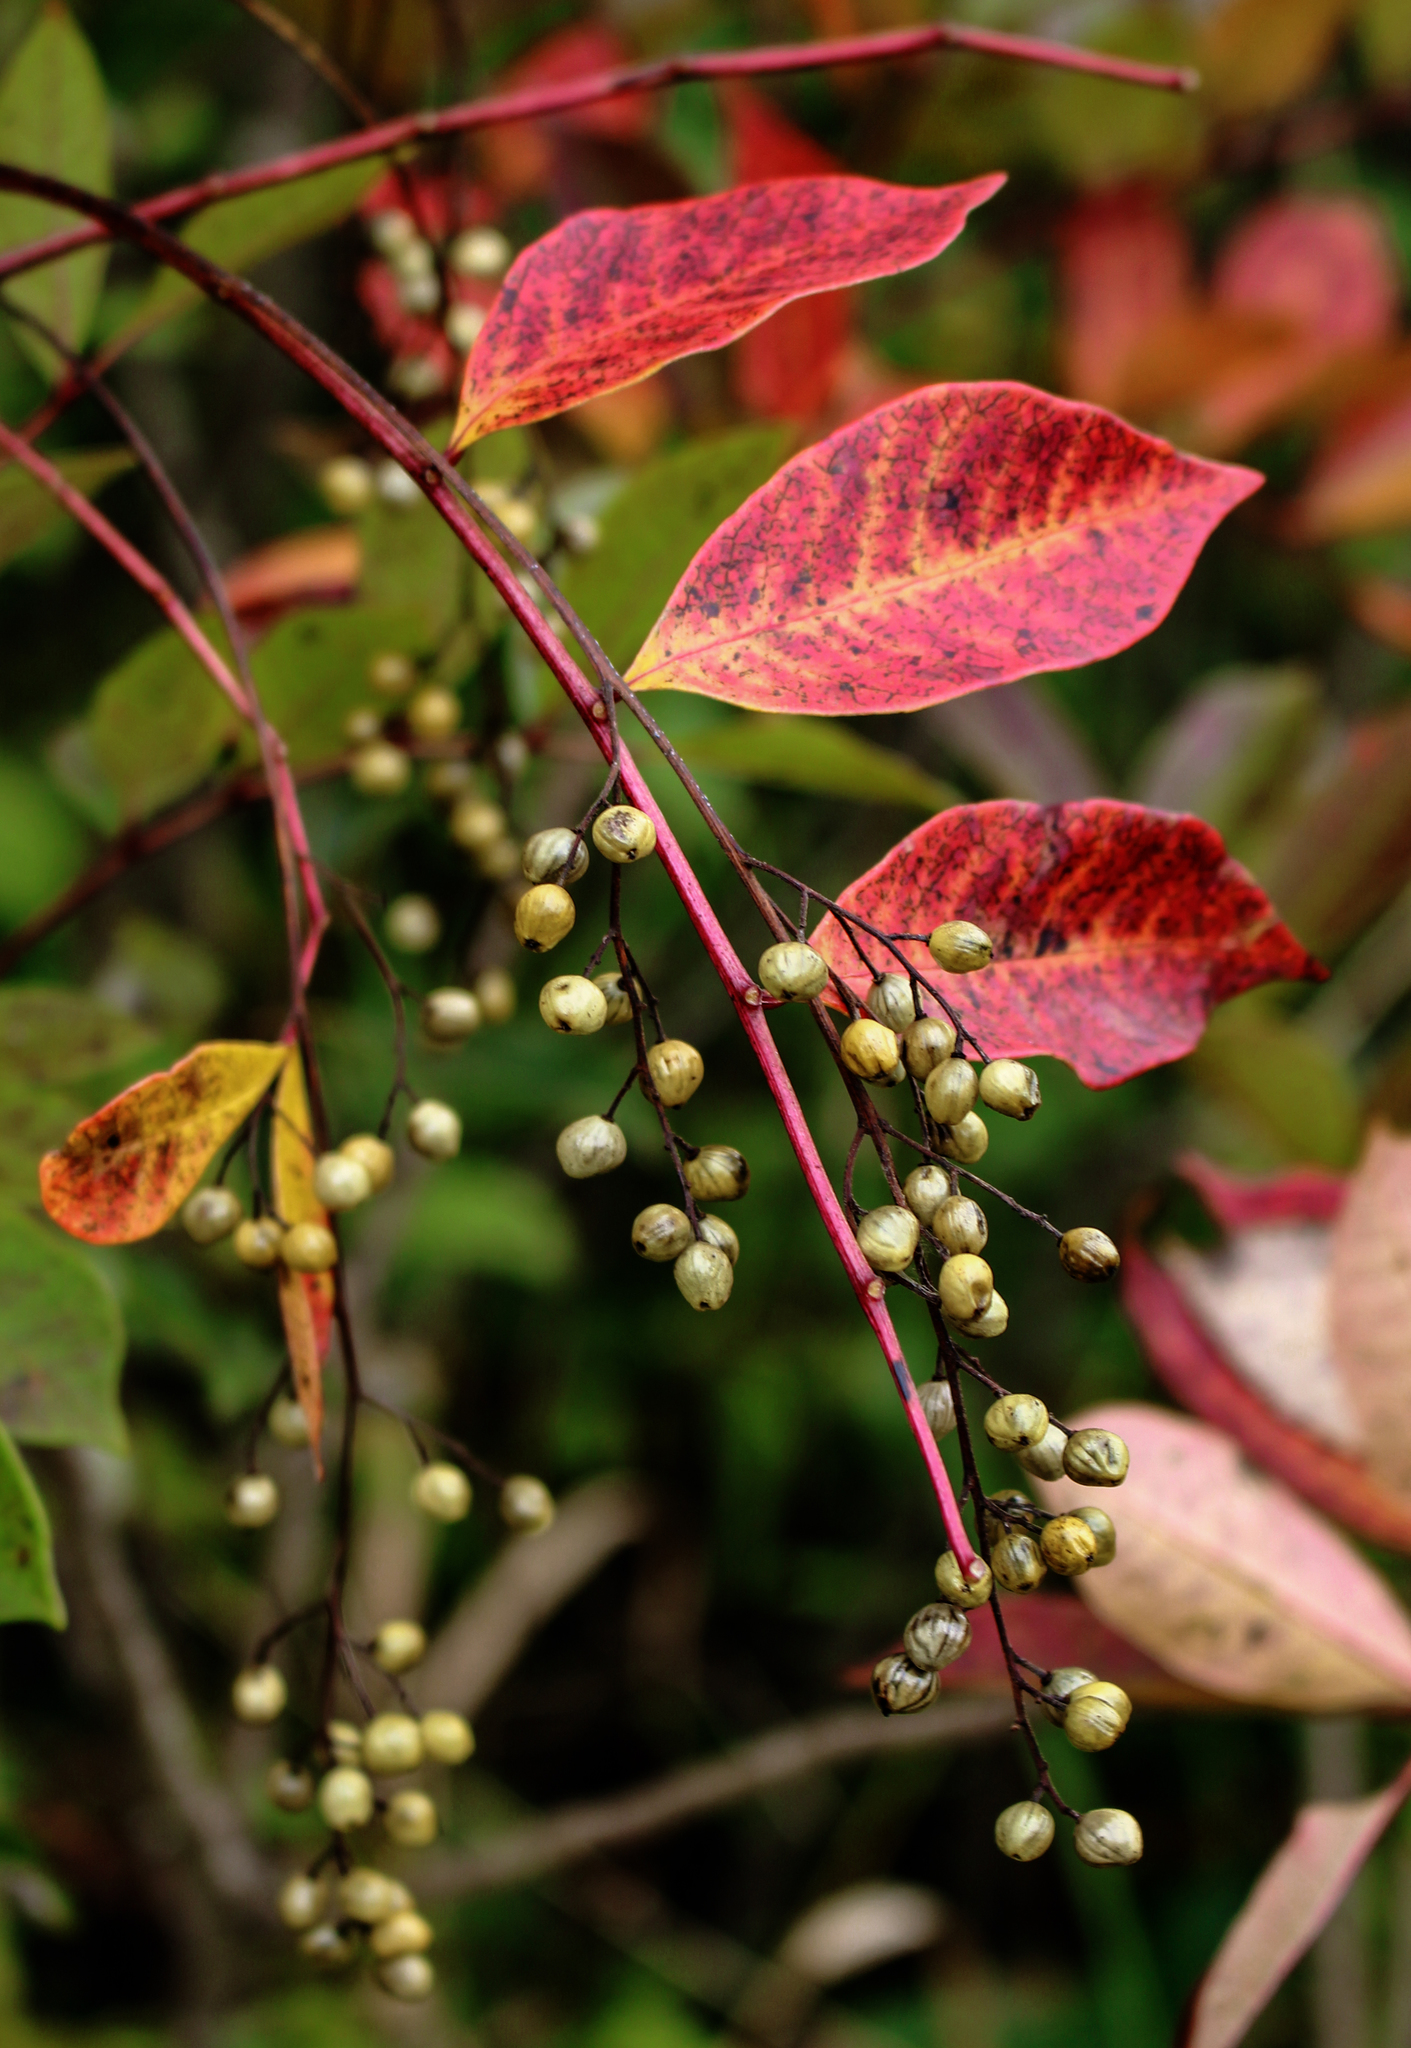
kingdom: Plantae
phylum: Tracheophyta
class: Magnoliopsida
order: Sapindales
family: Anacardiaceae
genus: Toxicodendron
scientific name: Toxicodendron vernix
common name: Poison sumac
